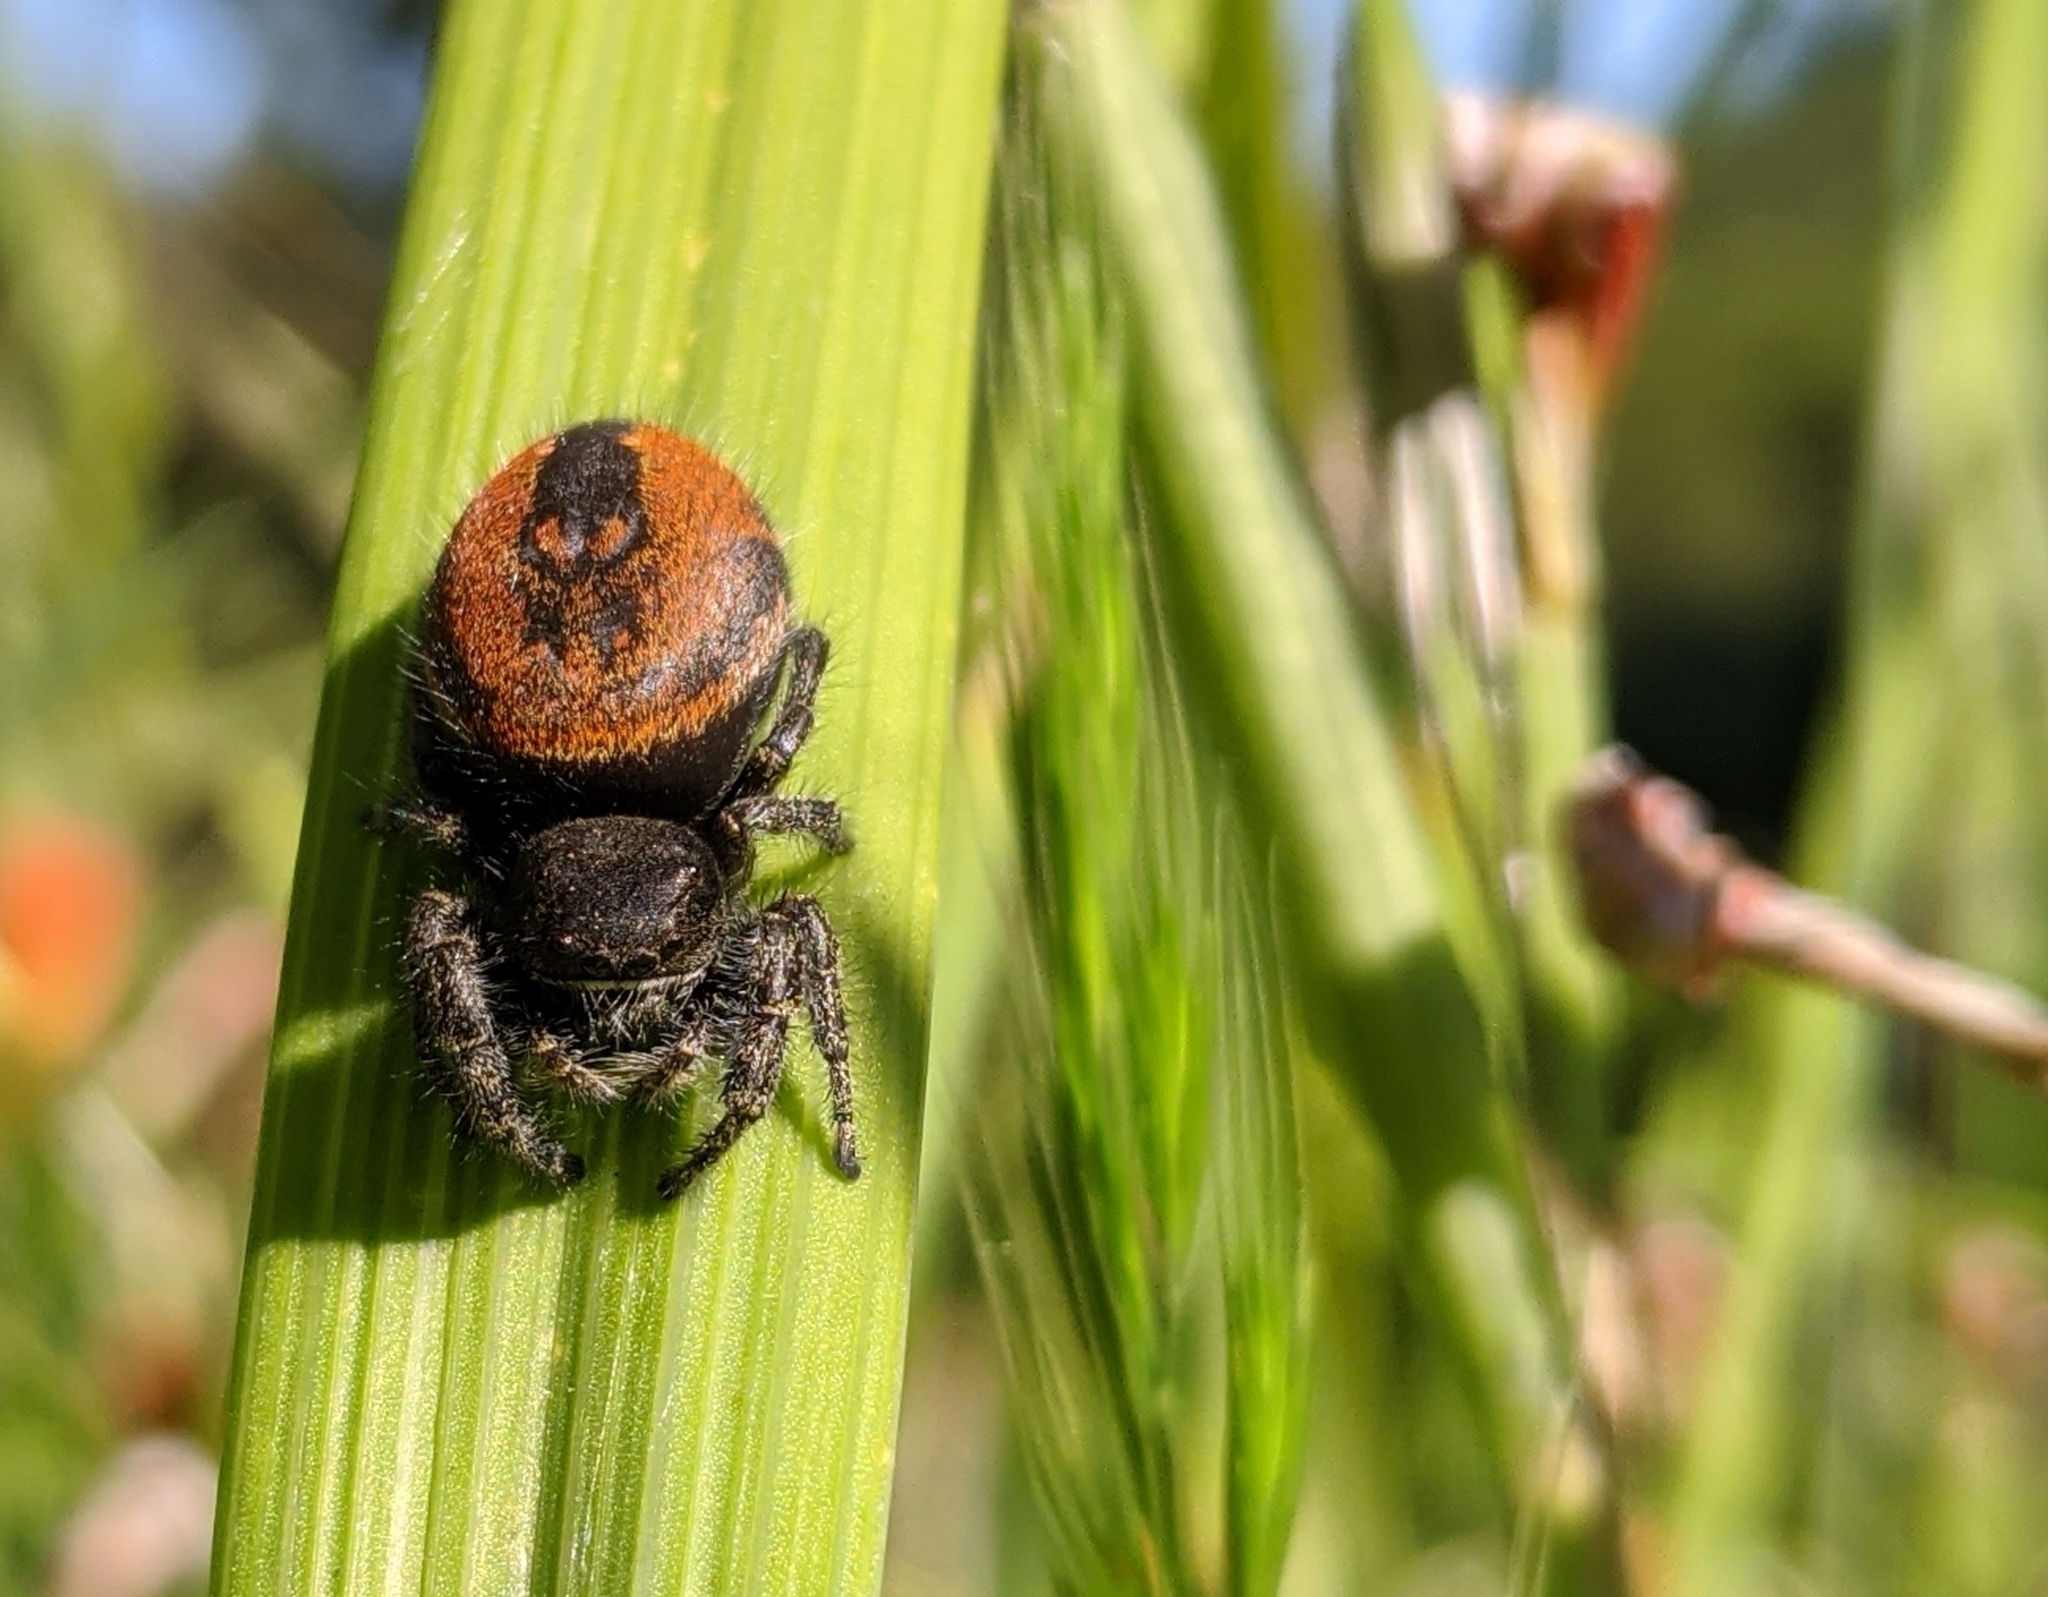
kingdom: Animalia
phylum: Arthropoda
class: Arachnida
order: Araneae
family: Salticidae
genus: Phidippus
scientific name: Phidippus johnsoni
